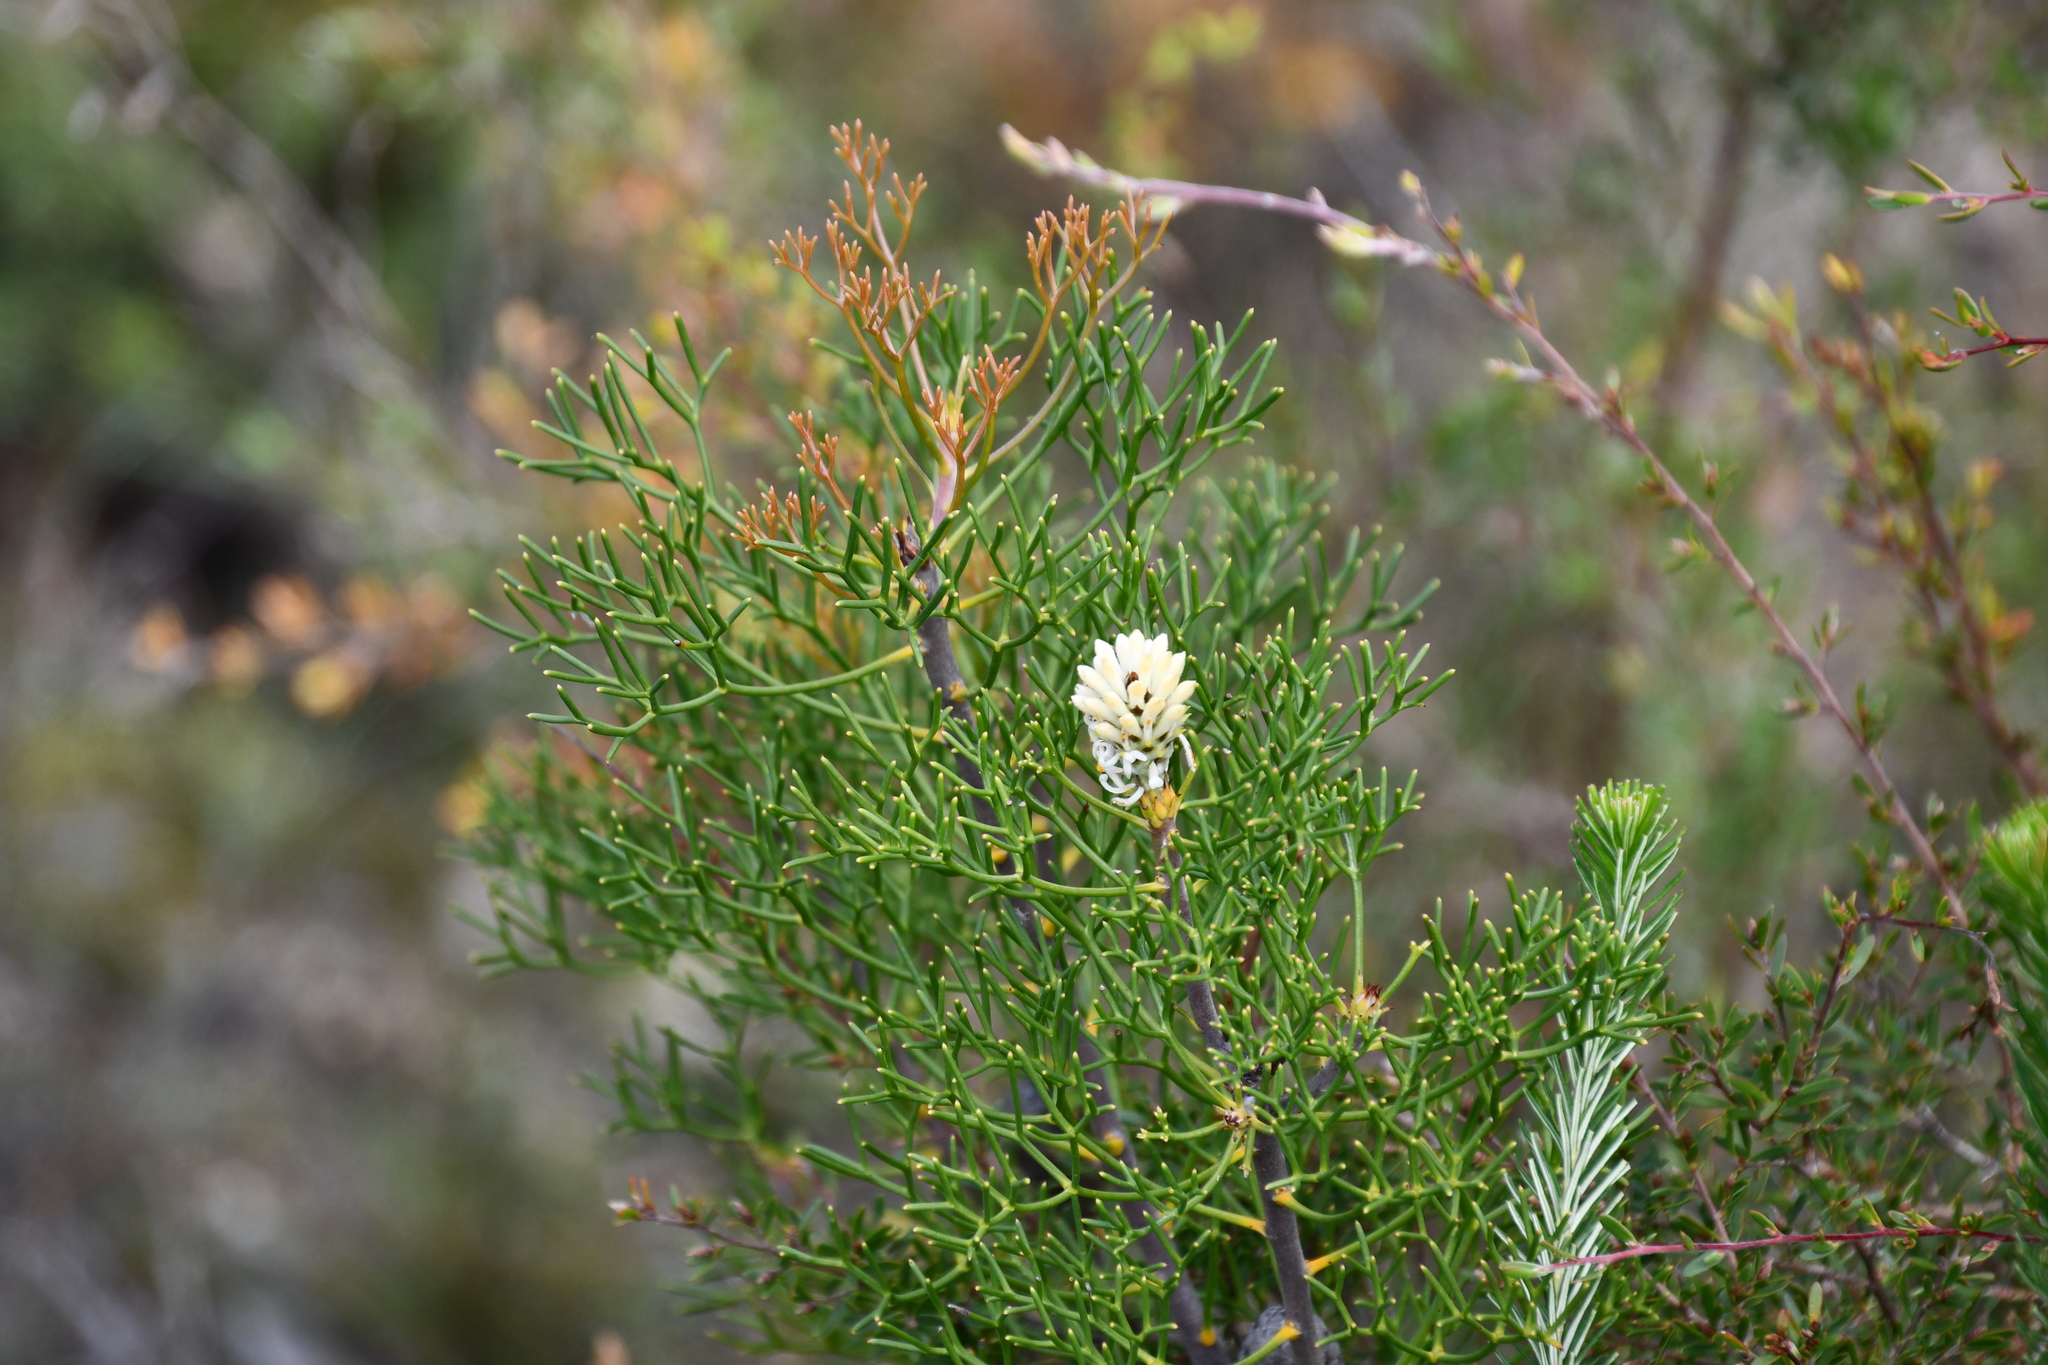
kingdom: Plantae
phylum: Tracheophyta
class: Magnoliopsida
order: Proteales
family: Proteaceae
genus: Petrophile
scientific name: Petrophile pulchella
